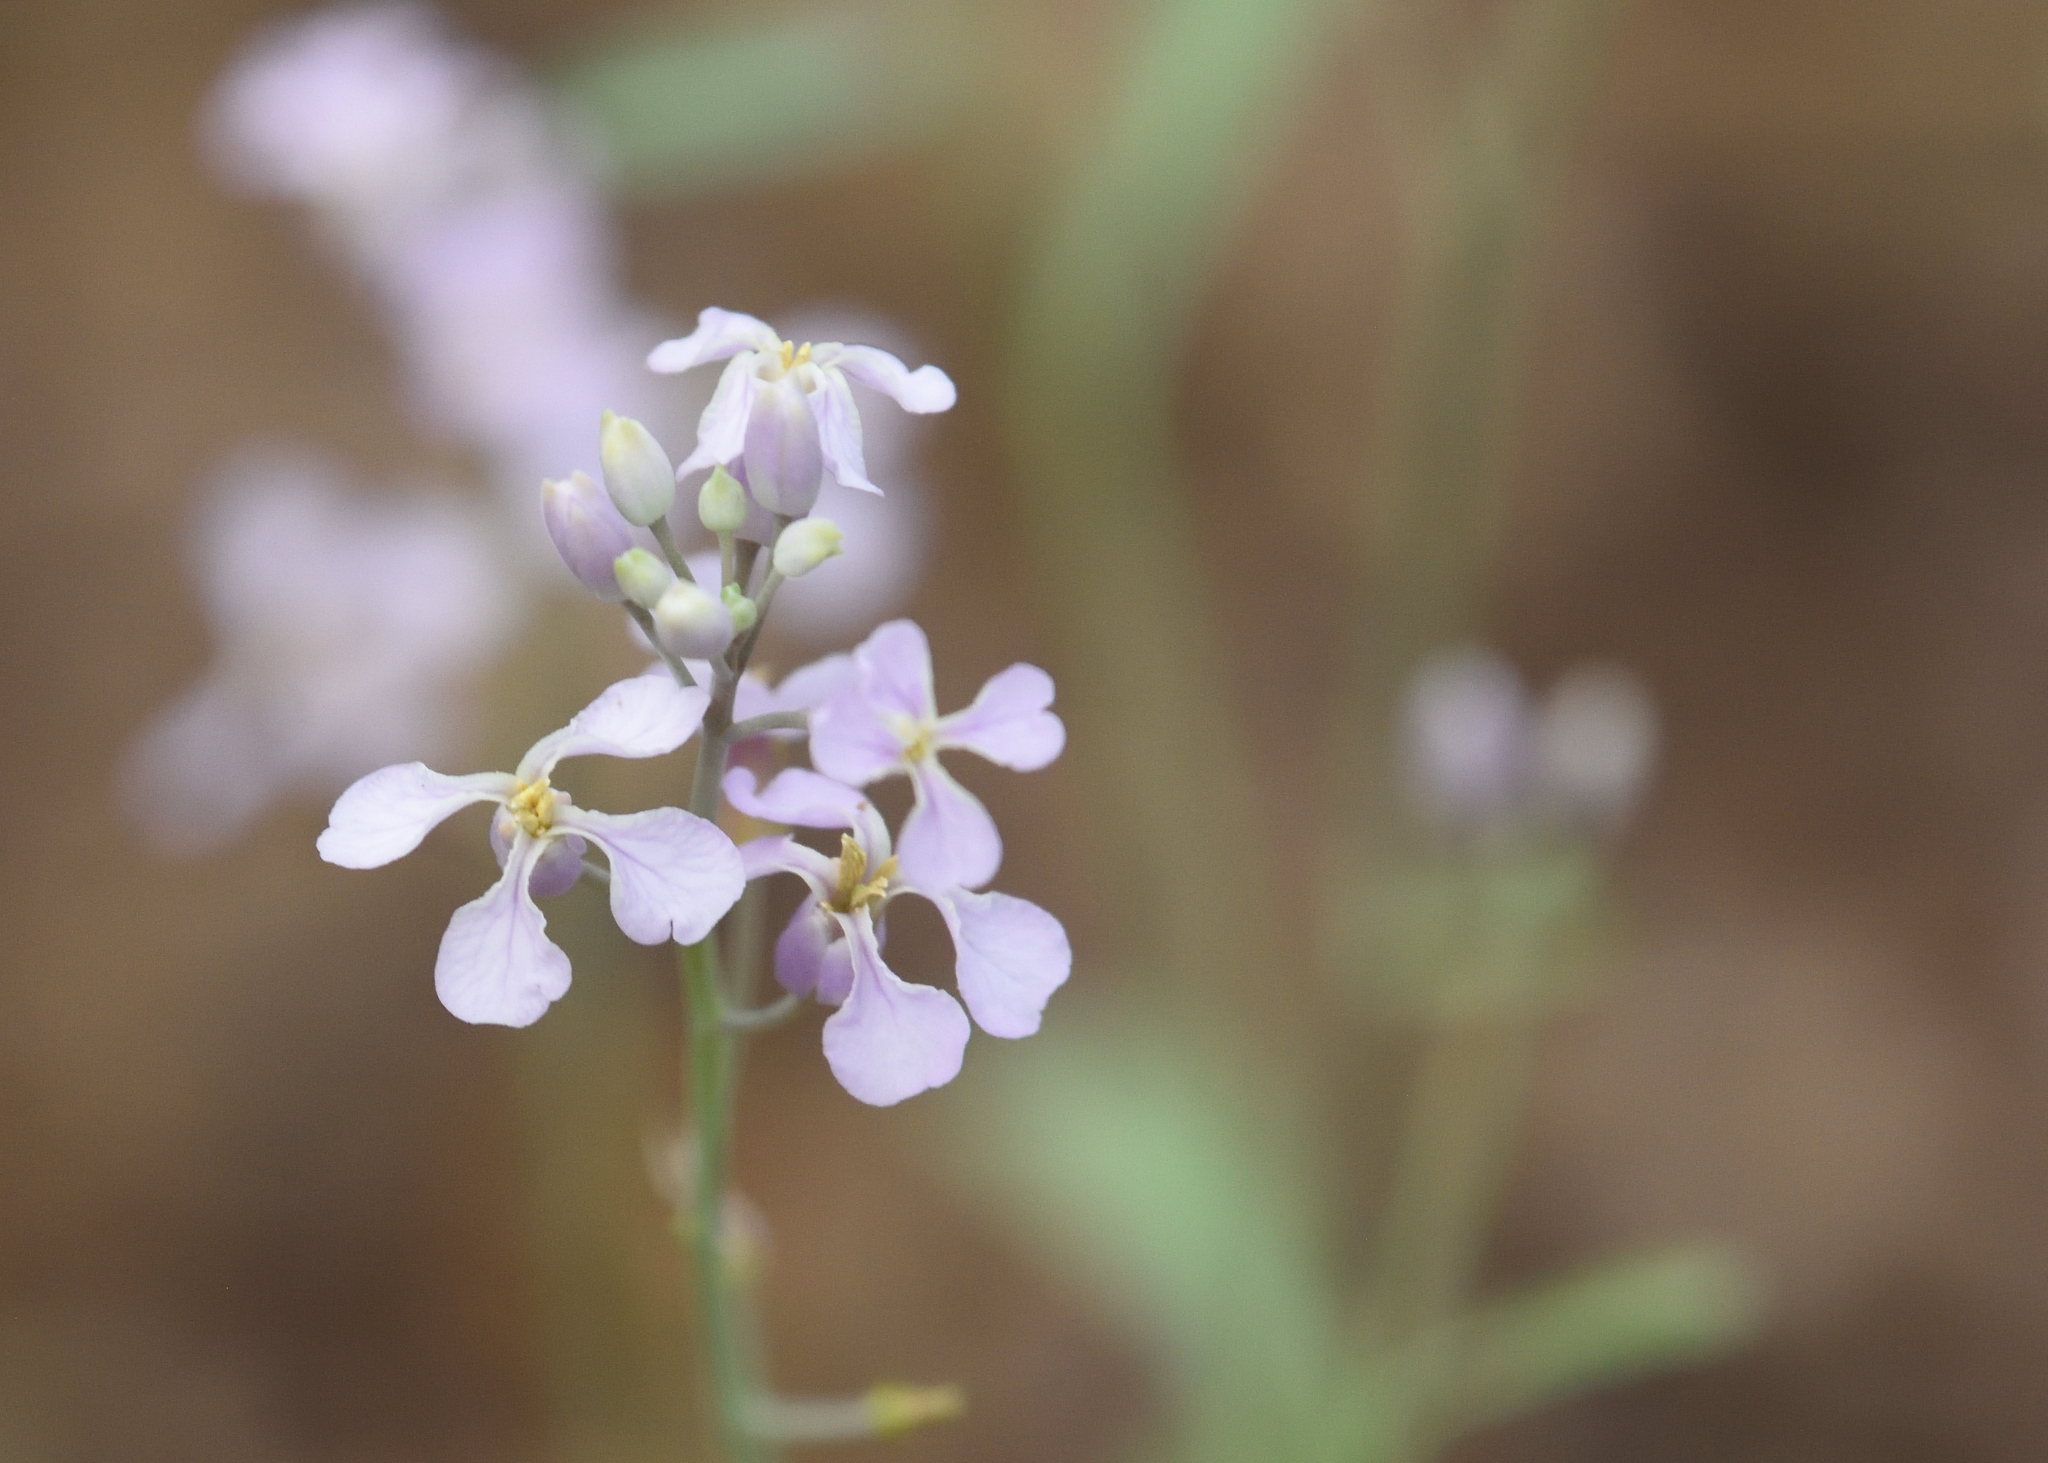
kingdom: Plantae
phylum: Tracheophyta
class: Magnoliopsida
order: Brassicales
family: Brassicaceae
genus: Hesperidanthus
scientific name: Hesperidanthus linearifolius
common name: Slim-leaf plains mustard
